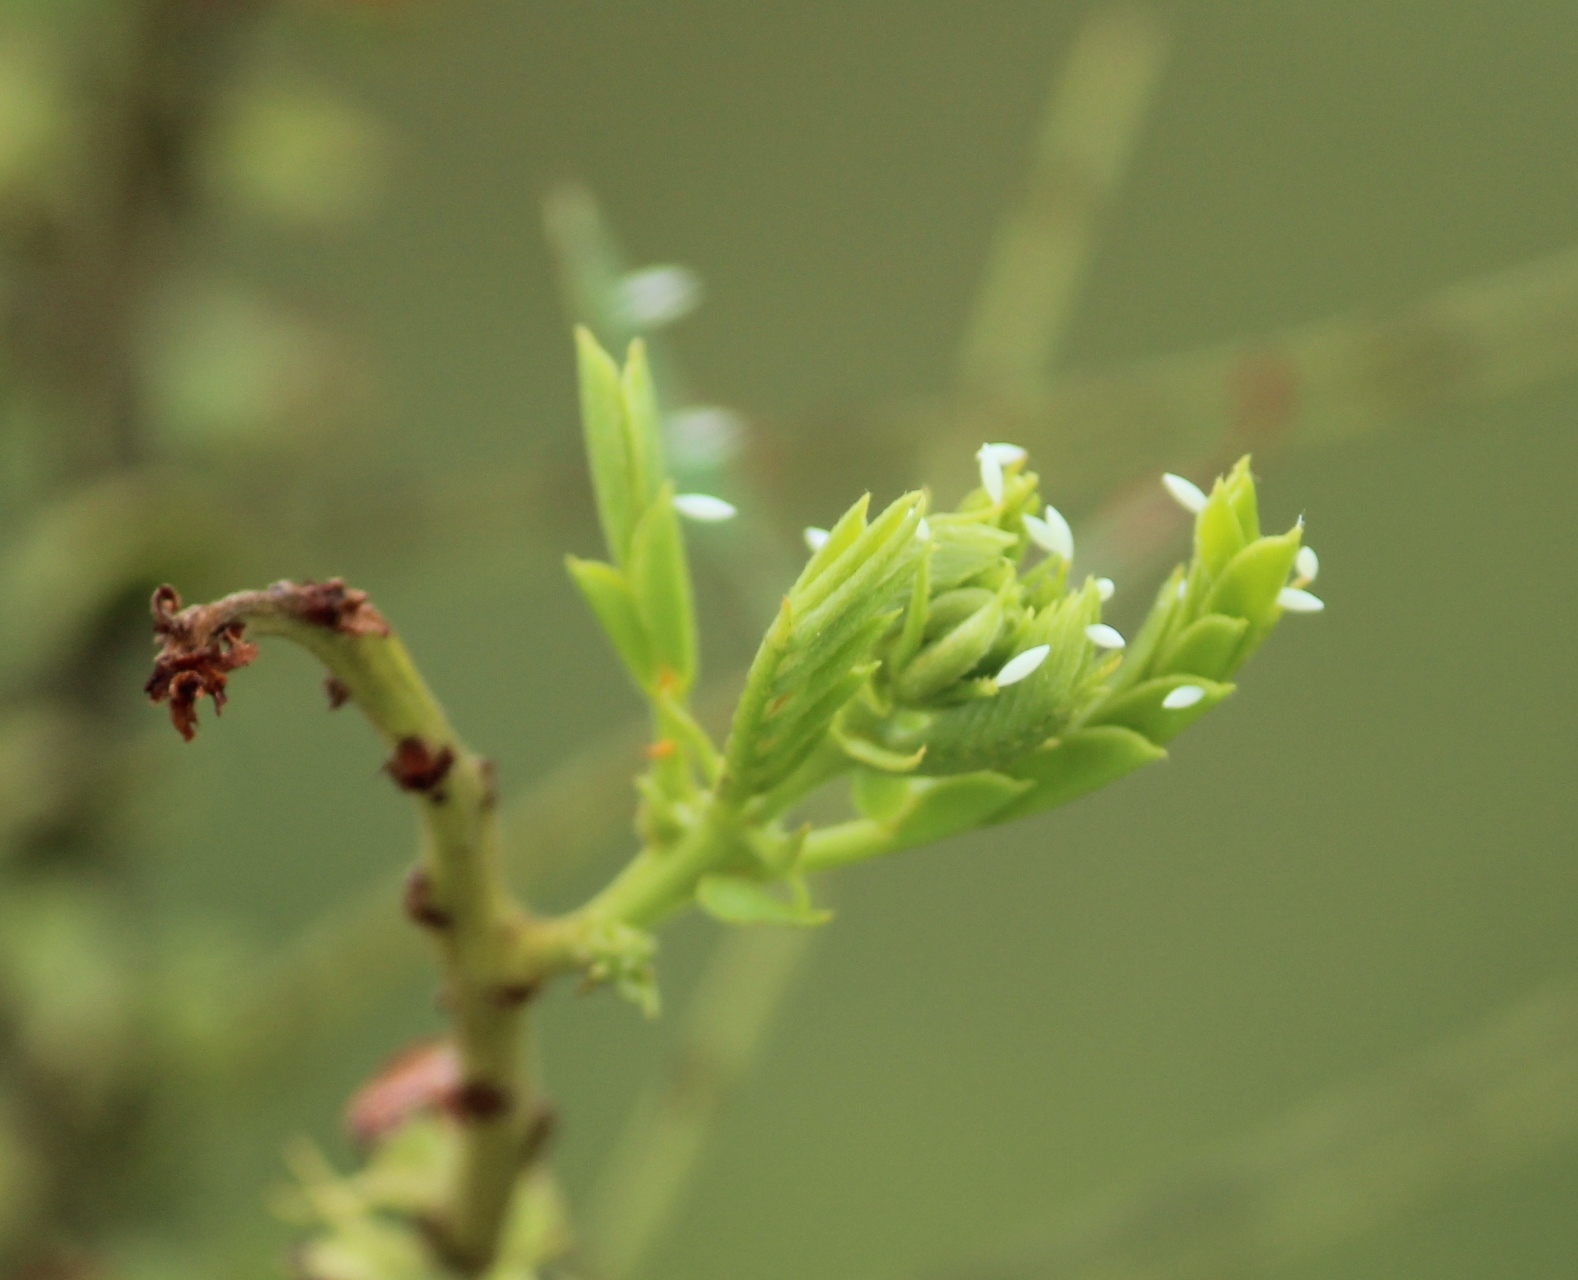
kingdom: Animalia
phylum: Arthropoda
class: Insecta
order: Lepidoptera
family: Pieridae
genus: Catopsilia
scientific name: Catopsilia pomona
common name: Common emigrant
